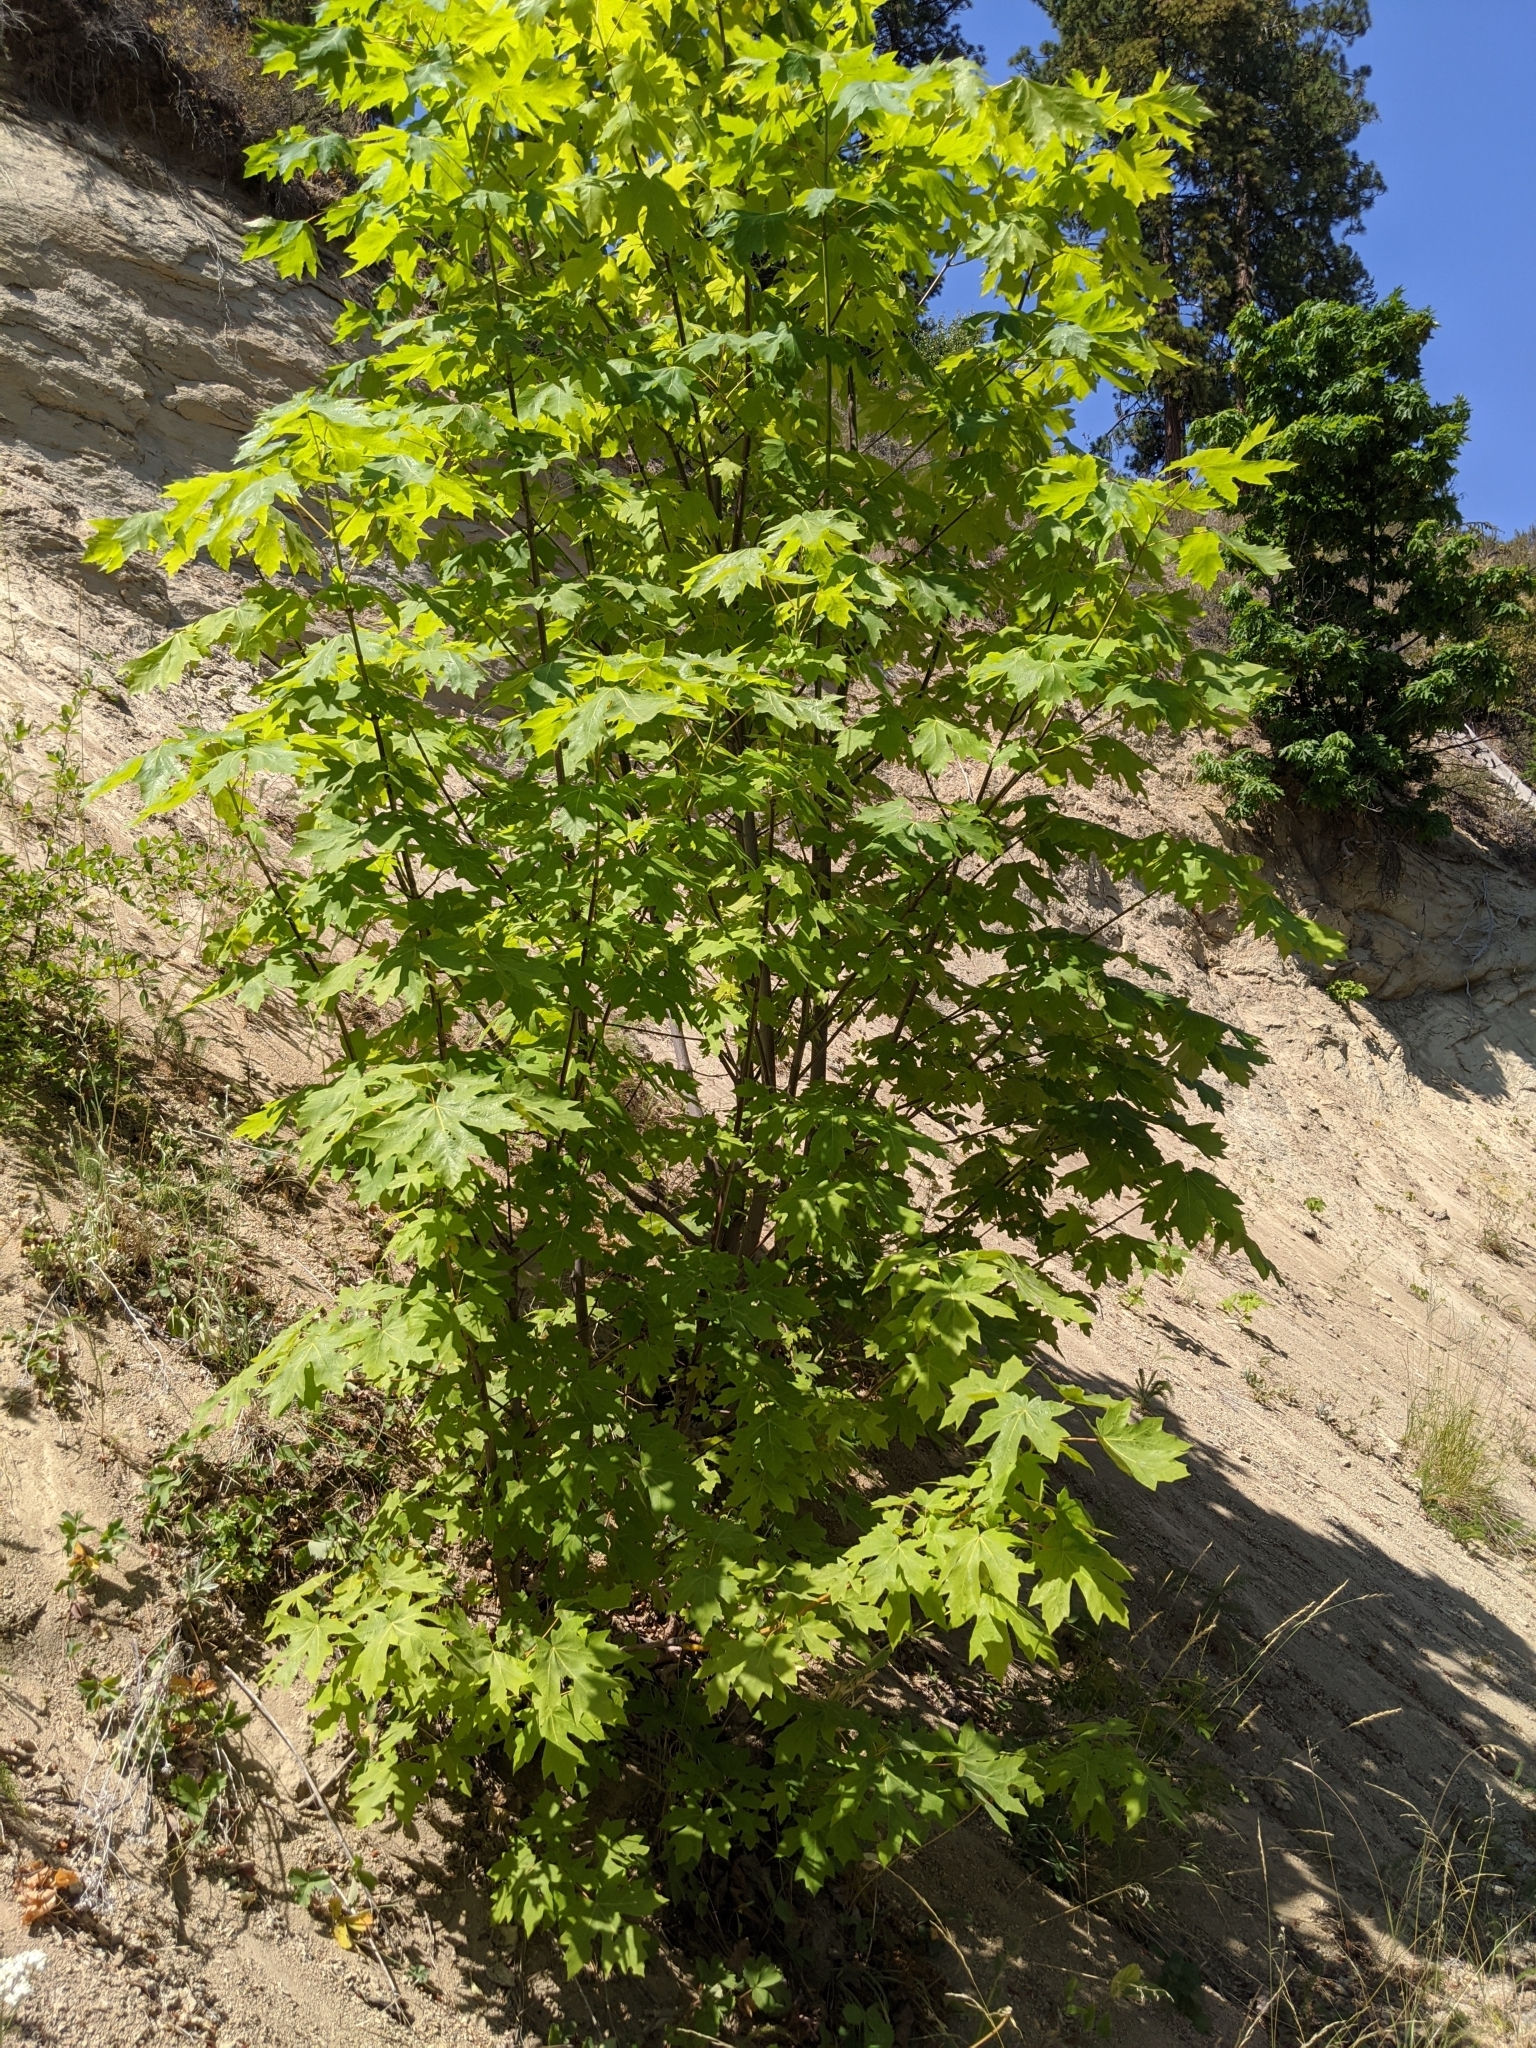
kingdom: Plantae
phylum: Tracheophyta
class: Magnoliopsida
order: Sapindales
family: Sapindaceae
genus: Acer
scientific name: Acer macrophyllum
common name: Oregon maple
